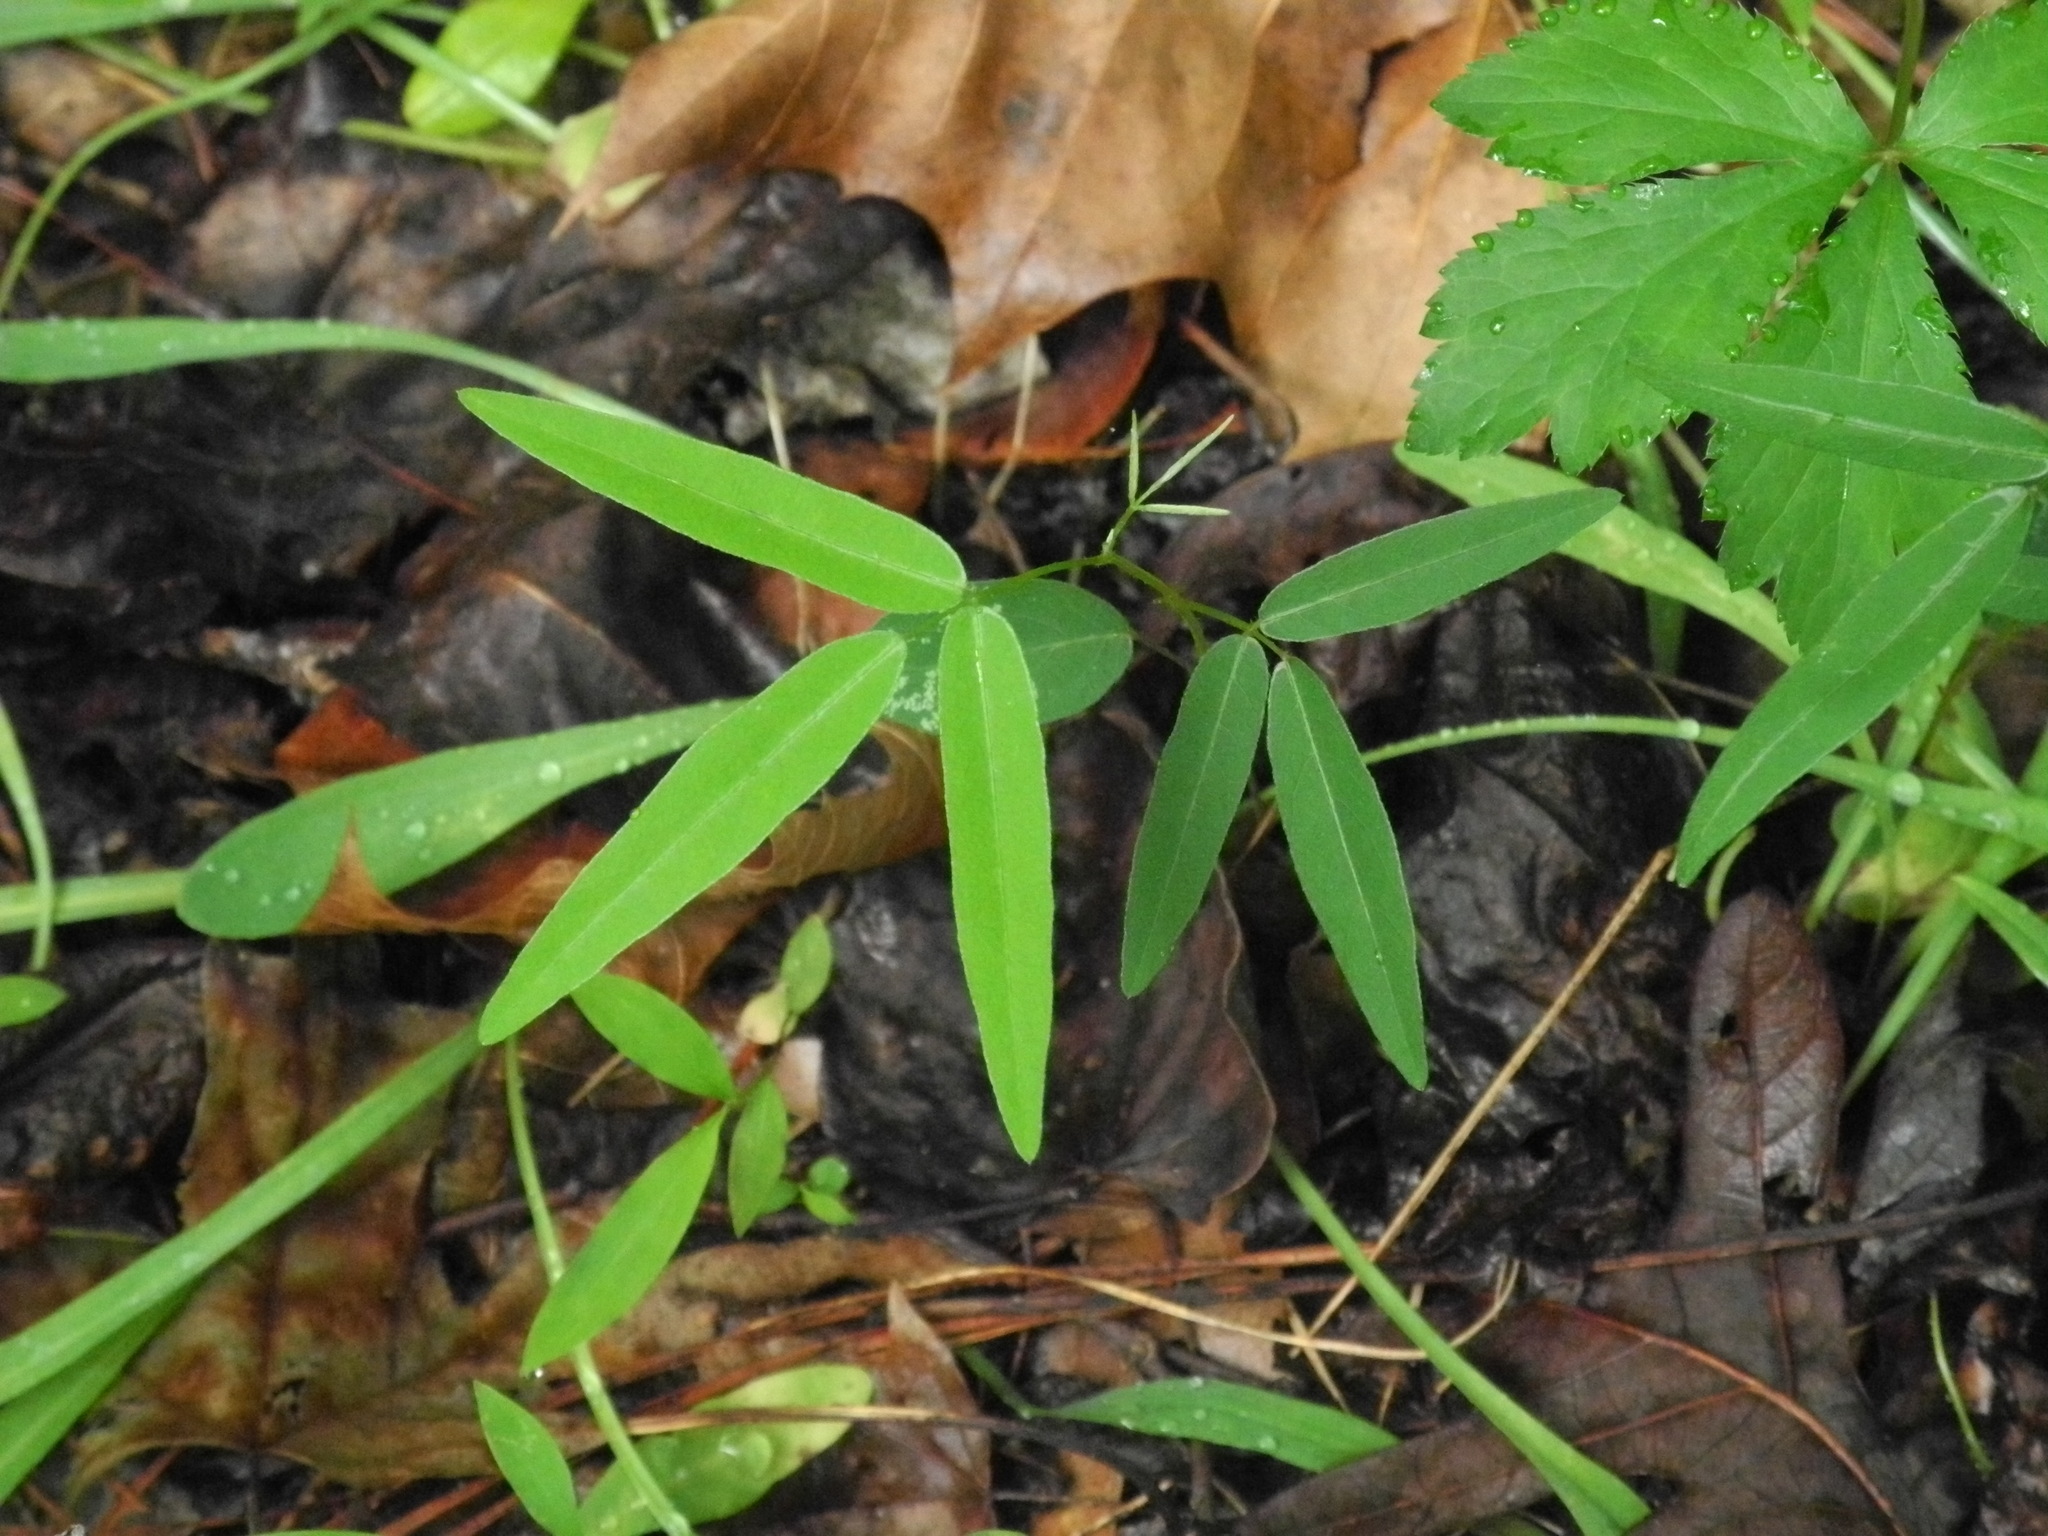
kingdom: Plantae
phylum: Tracheophyta
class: Magnoliopsida
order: Fabales
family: Fabaceae
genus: Desmodium
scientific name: Desmodium paniculatum
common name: Panicled tick-clover
